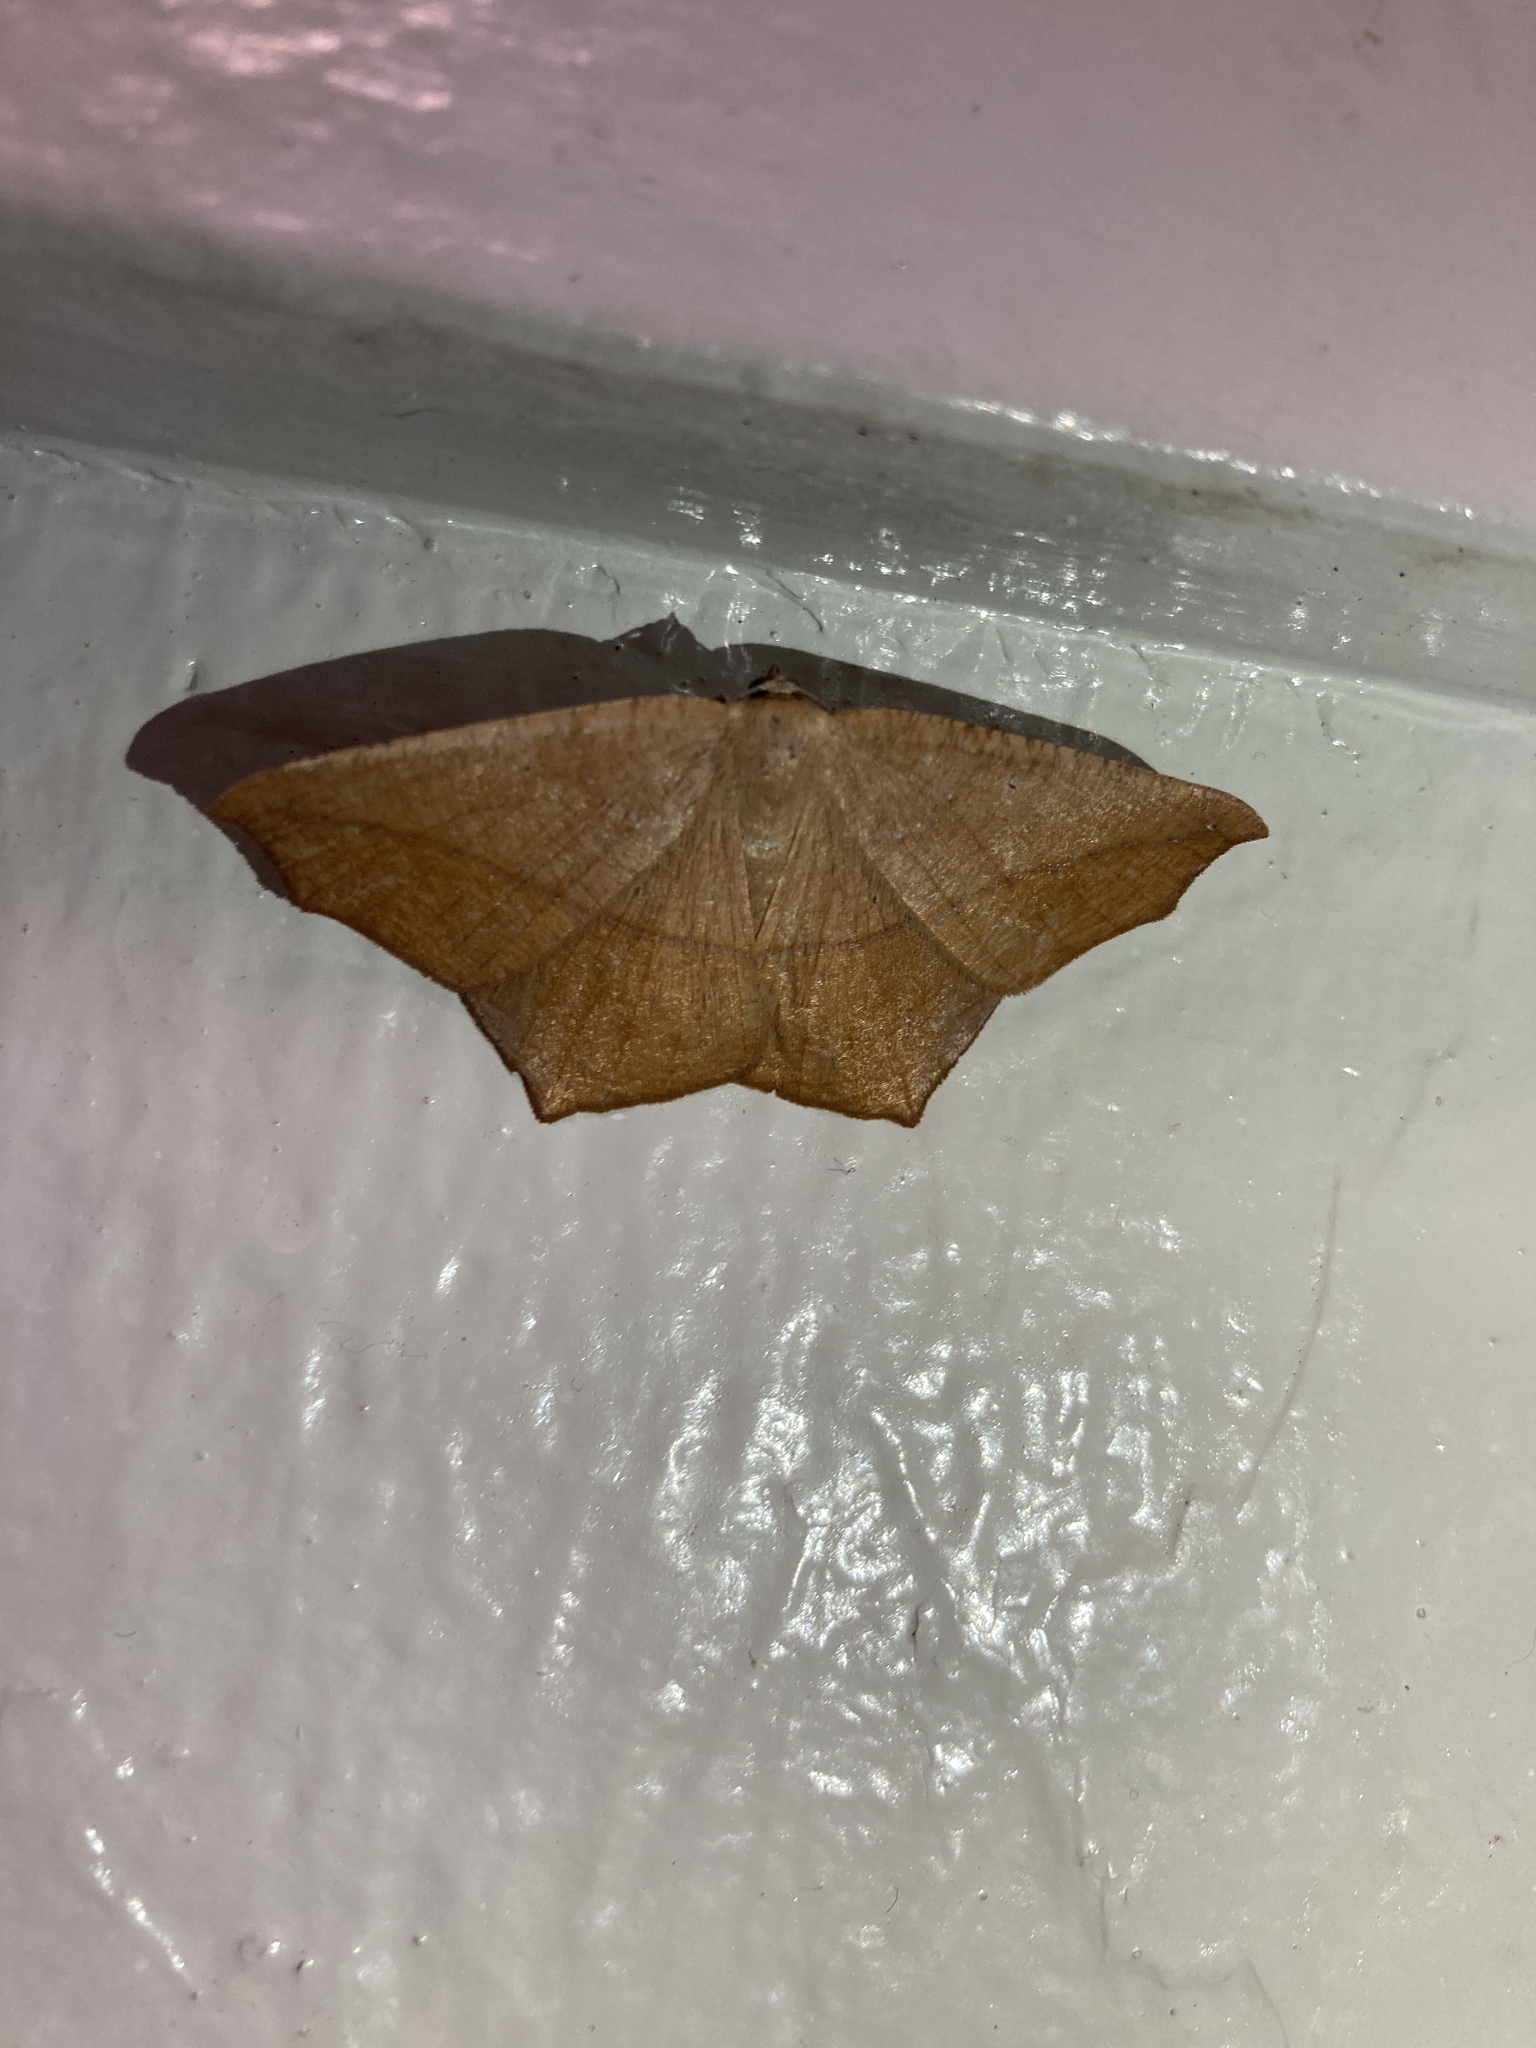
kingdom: Animalia
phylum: Arthropoda
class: Insecta
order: Lepidoptera
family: Geometridae
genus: Prochoerodes
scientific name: Prochoerodes lineola
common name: Large maple spanworm
